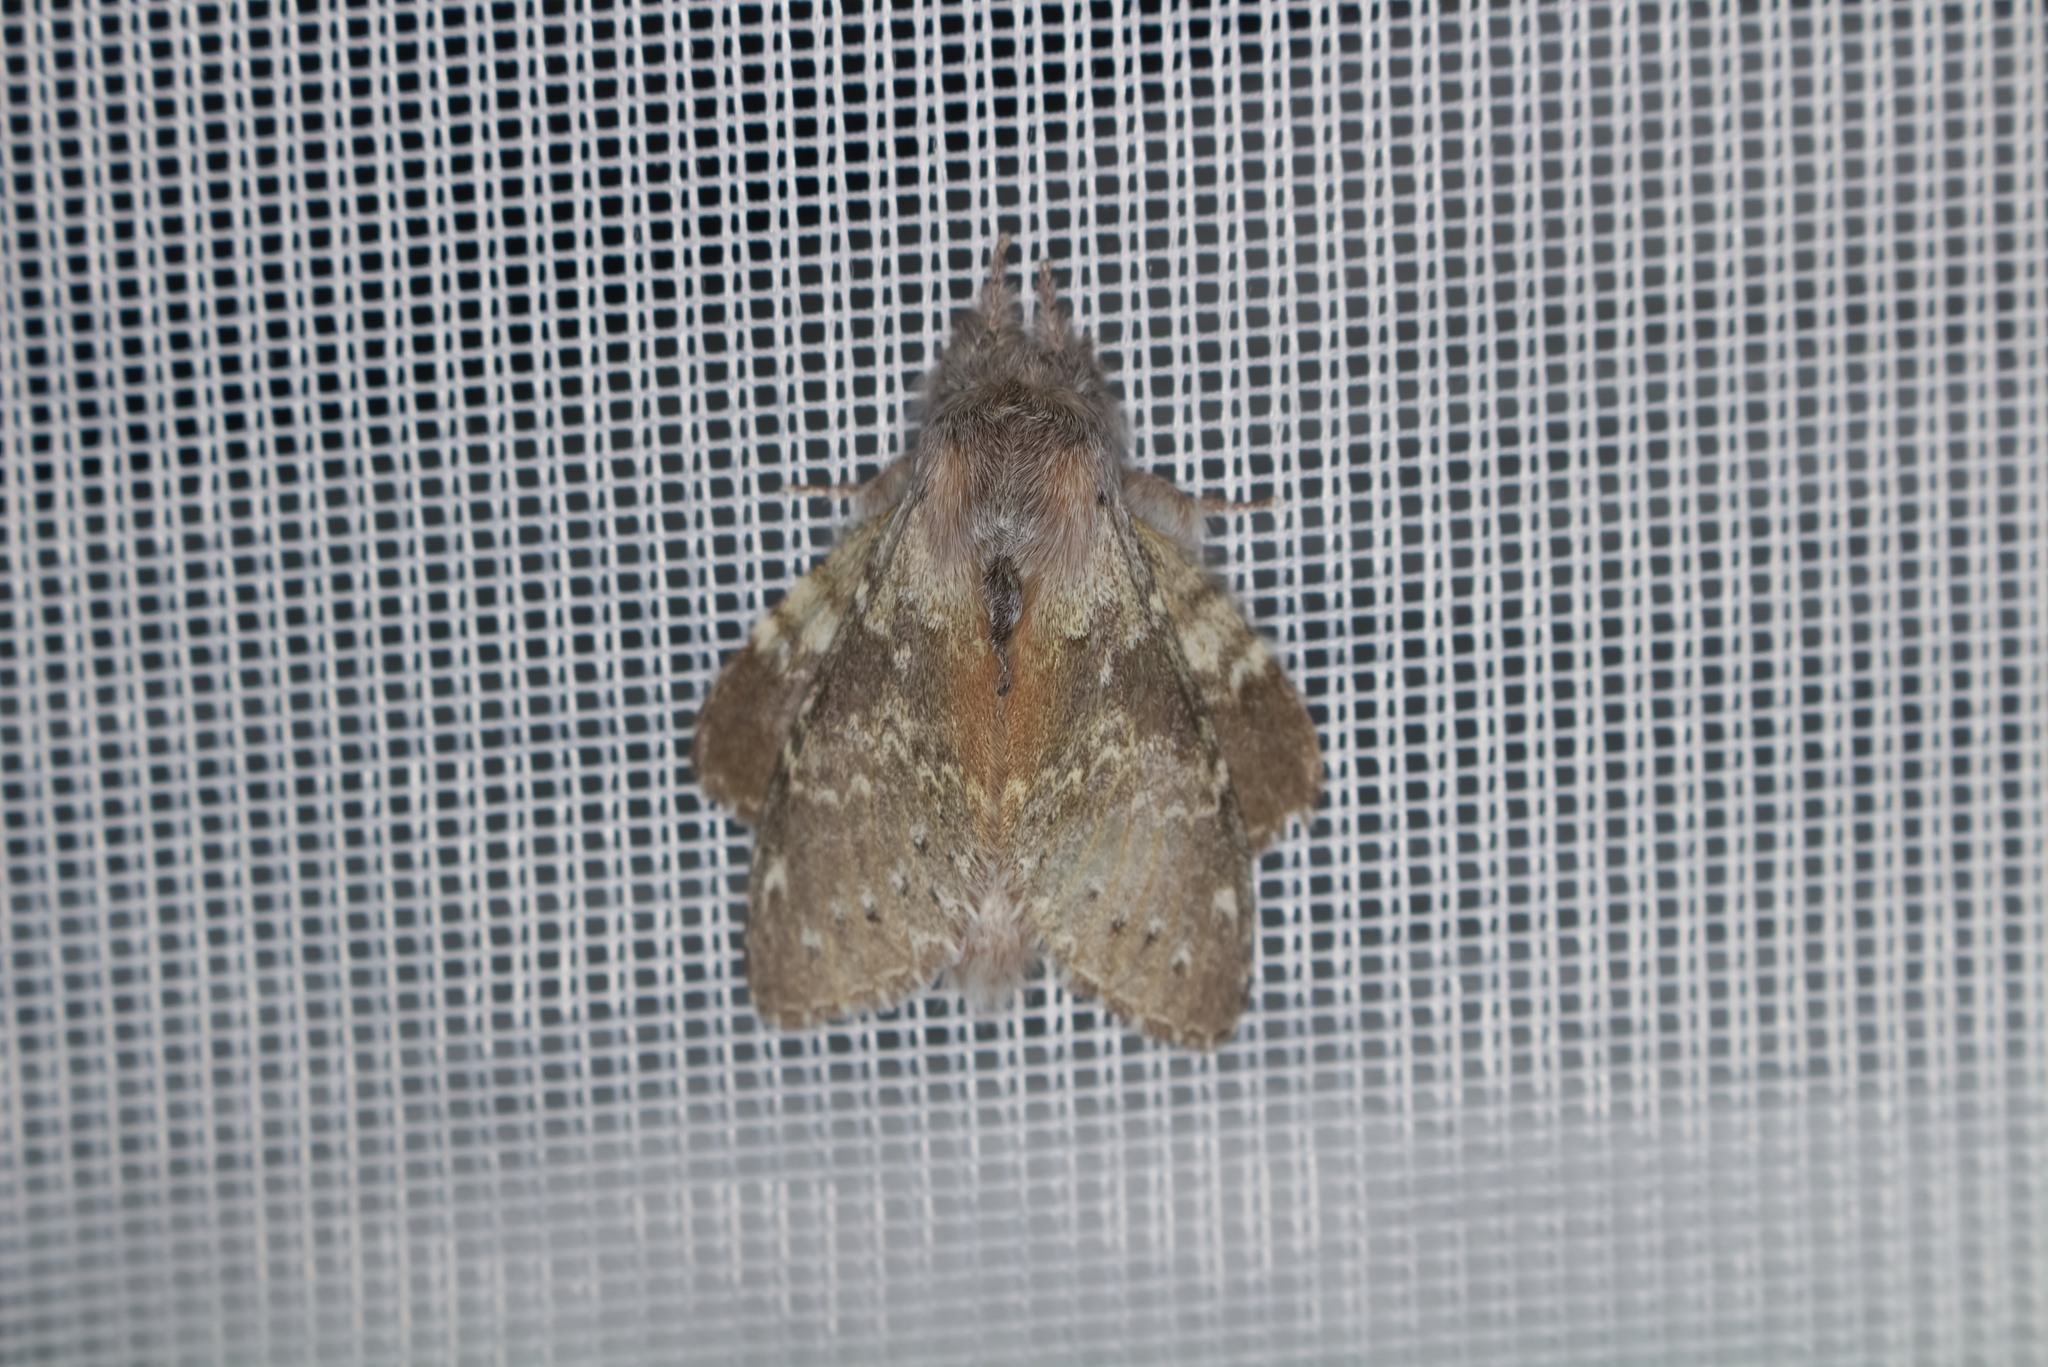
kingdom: Animalia
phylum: Arthropoda
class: Insecta
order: Lepidoptera
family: Notodontidae
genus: Stauropus
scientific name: Stauropus fagi
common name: Lobster moth
